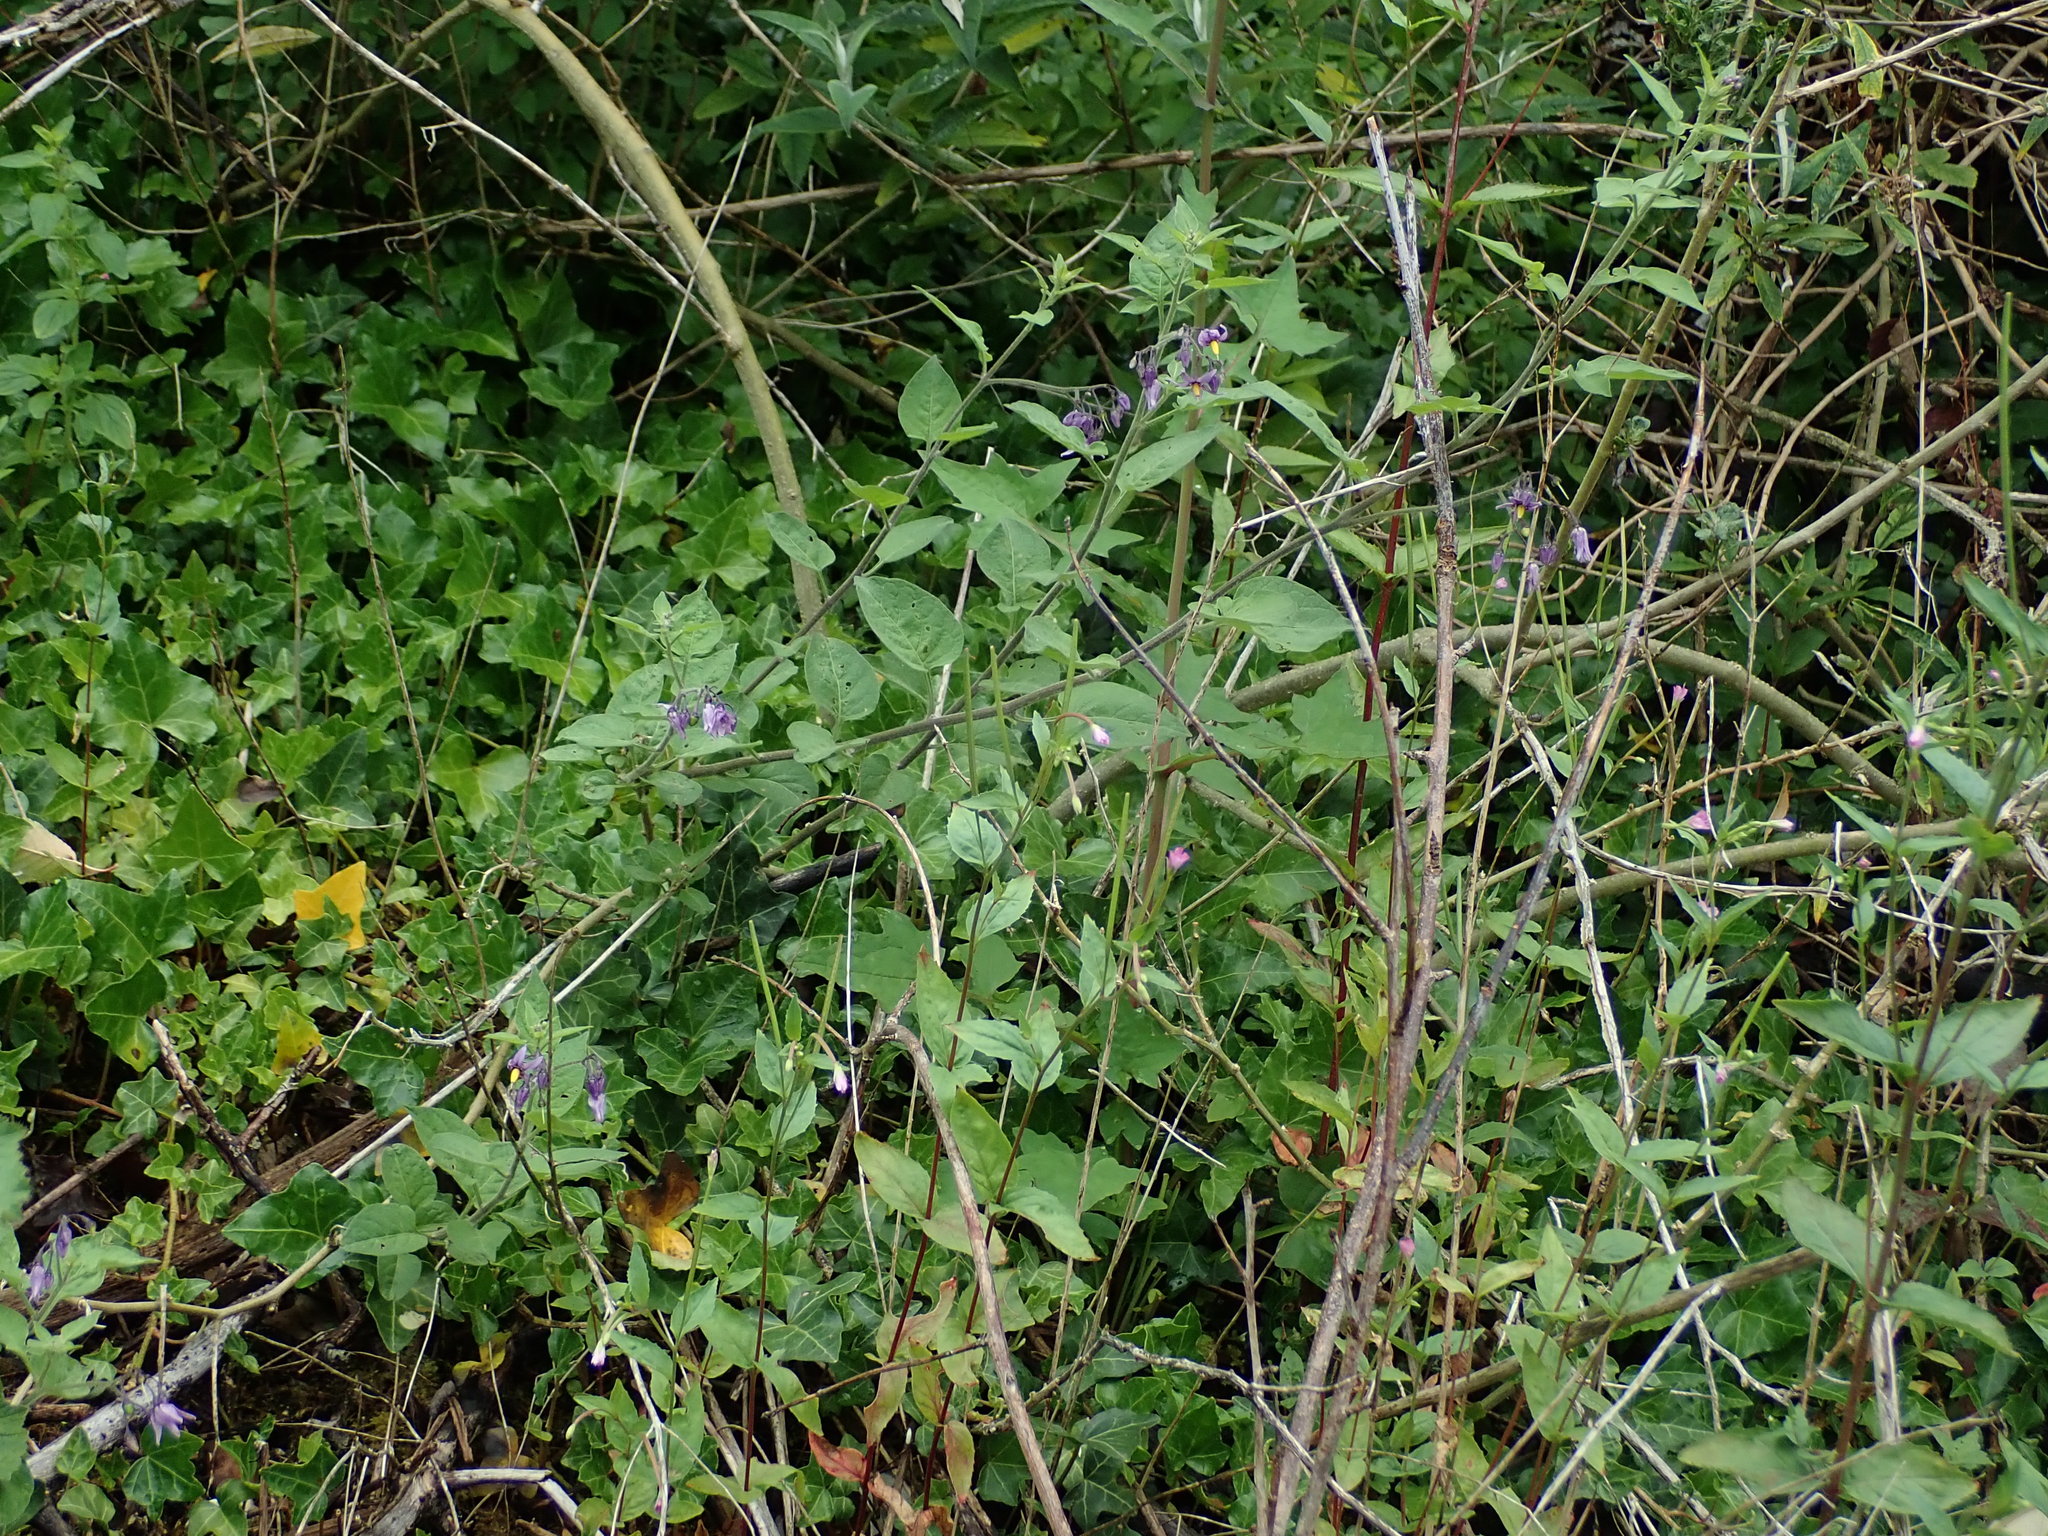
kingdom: Plantae
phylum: Tracheophyta
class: Magnoliopsida
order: Solanales
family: Solanaceae
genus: Solanum
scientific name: Solanum dulcamara
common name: Climbing nightshade
